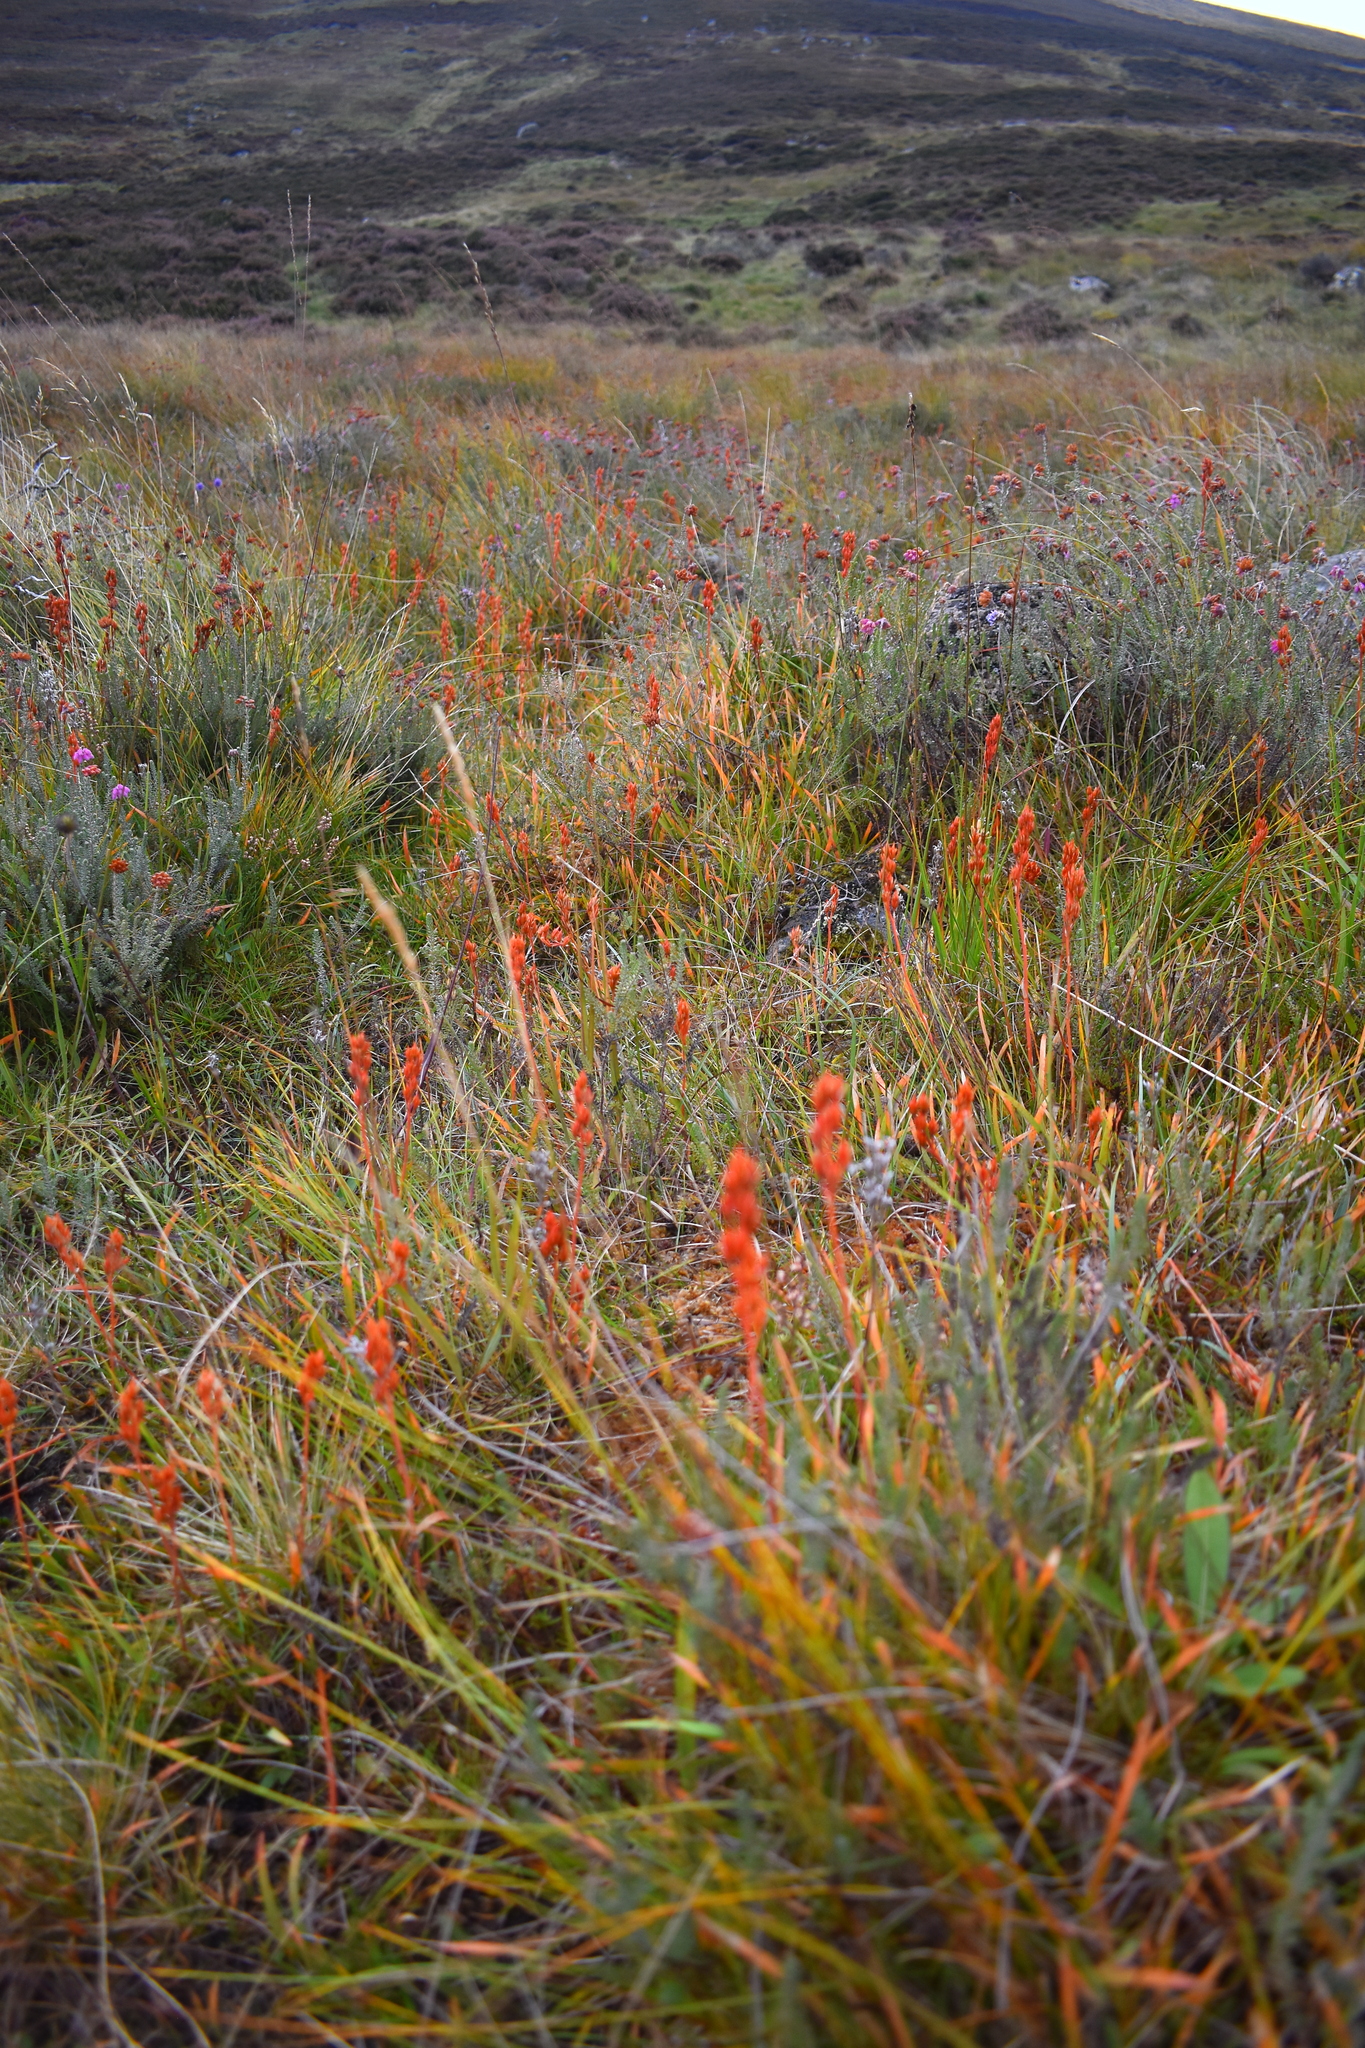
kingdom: Plantae
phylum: Tracheophyta
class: Liliopsida
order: Dioscoreales
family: Nartheciaceae
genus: Narthecium
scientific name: Narthecium ossifragum
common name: Bog asphodel
